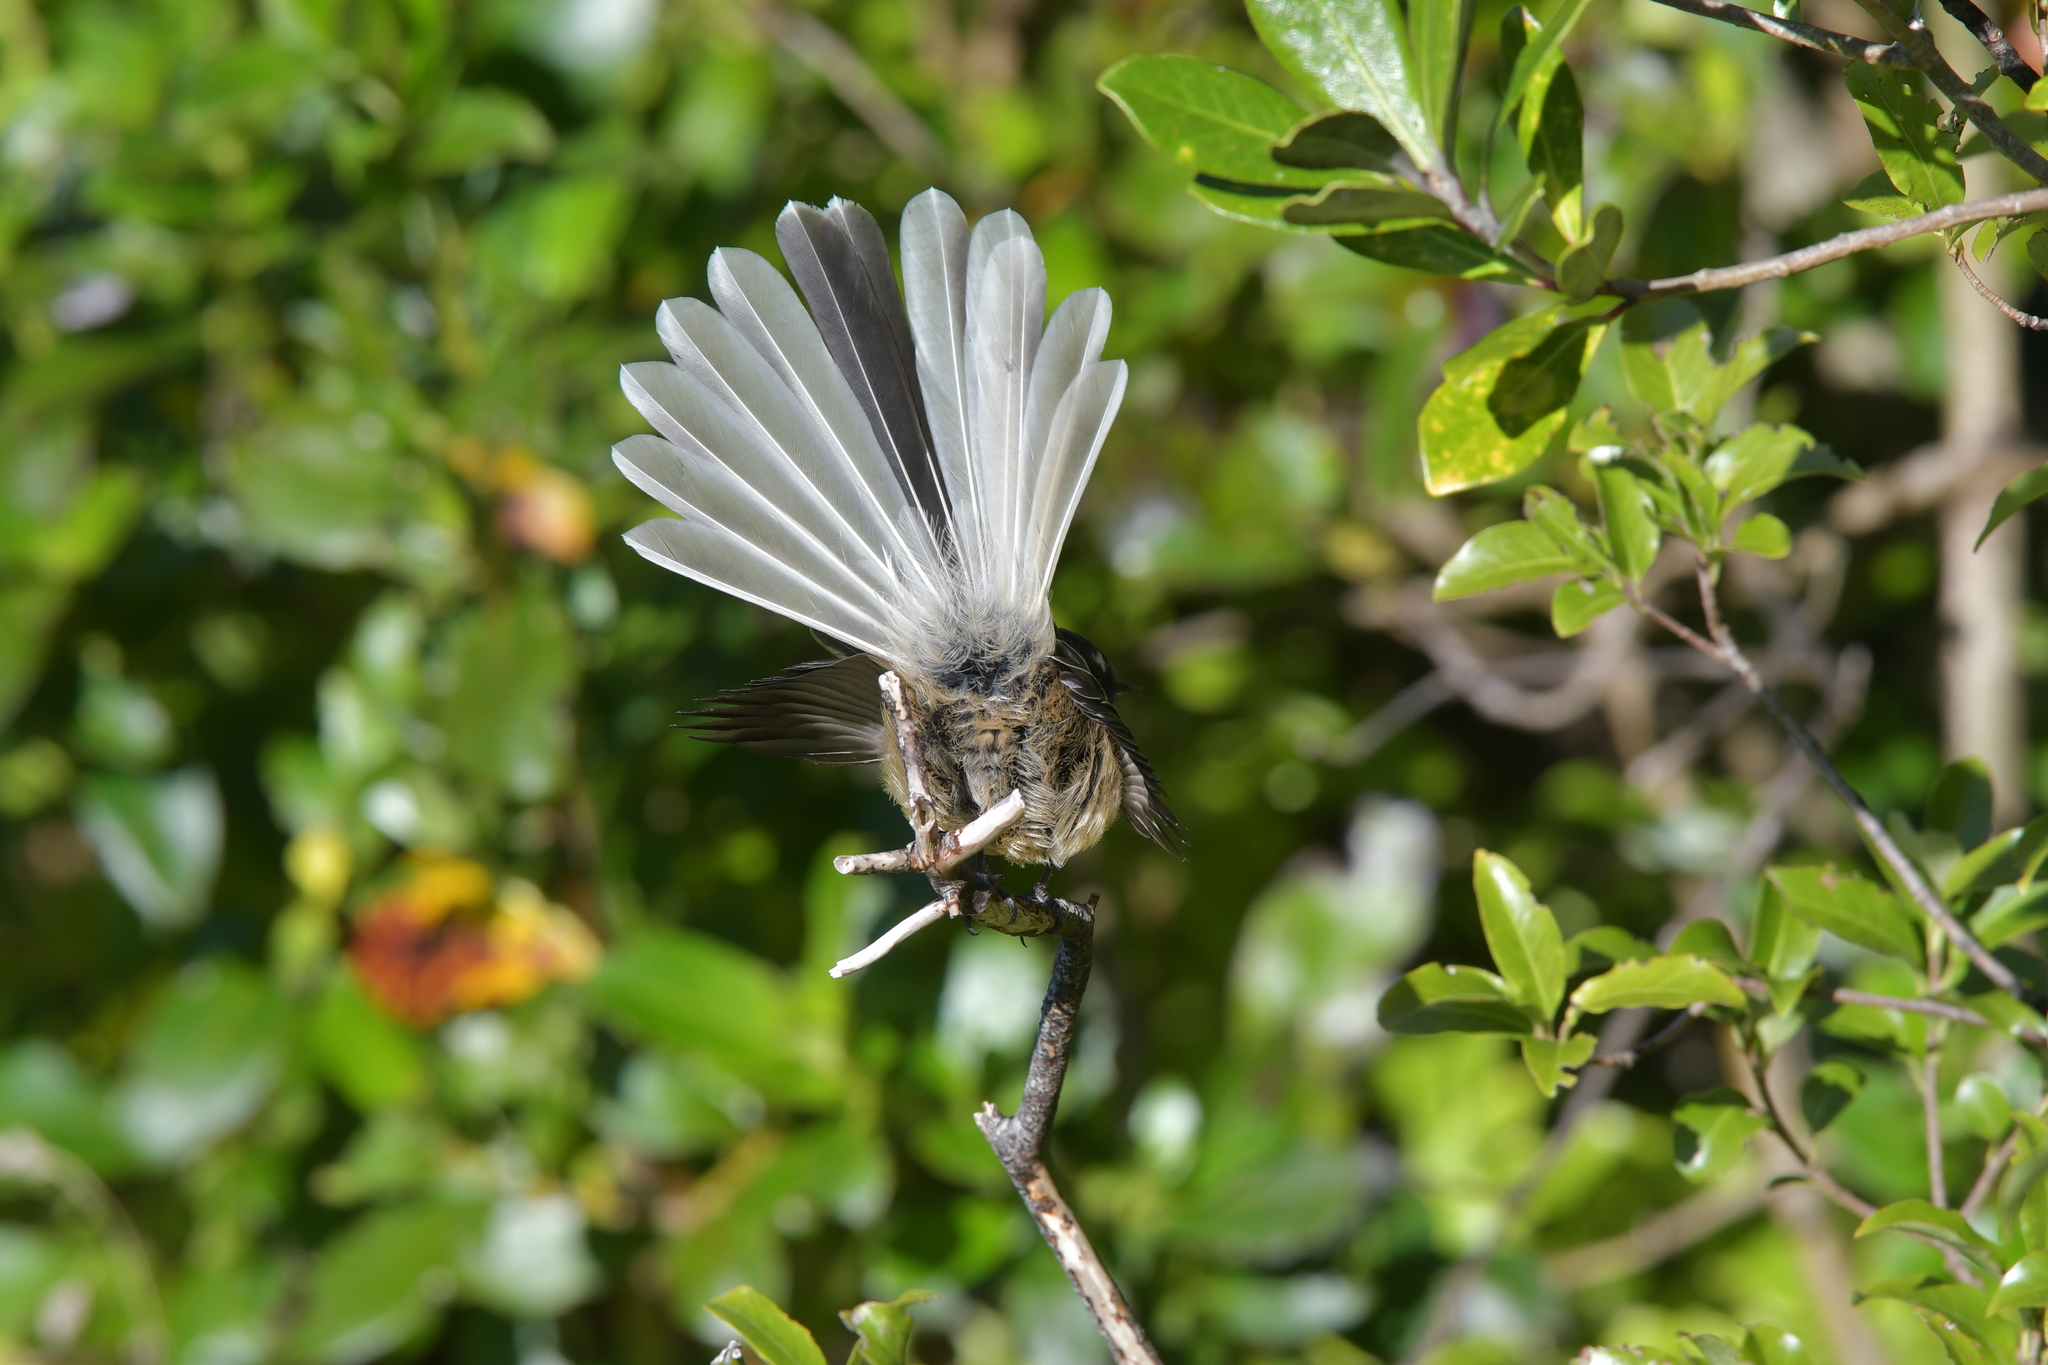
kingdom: Animalia
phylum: Chordata
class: Aves
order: Passeriformes
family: Rhipiduridae
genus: Rhipidura
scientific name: Rhipidura fuliginosa
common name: New zealand fantail
